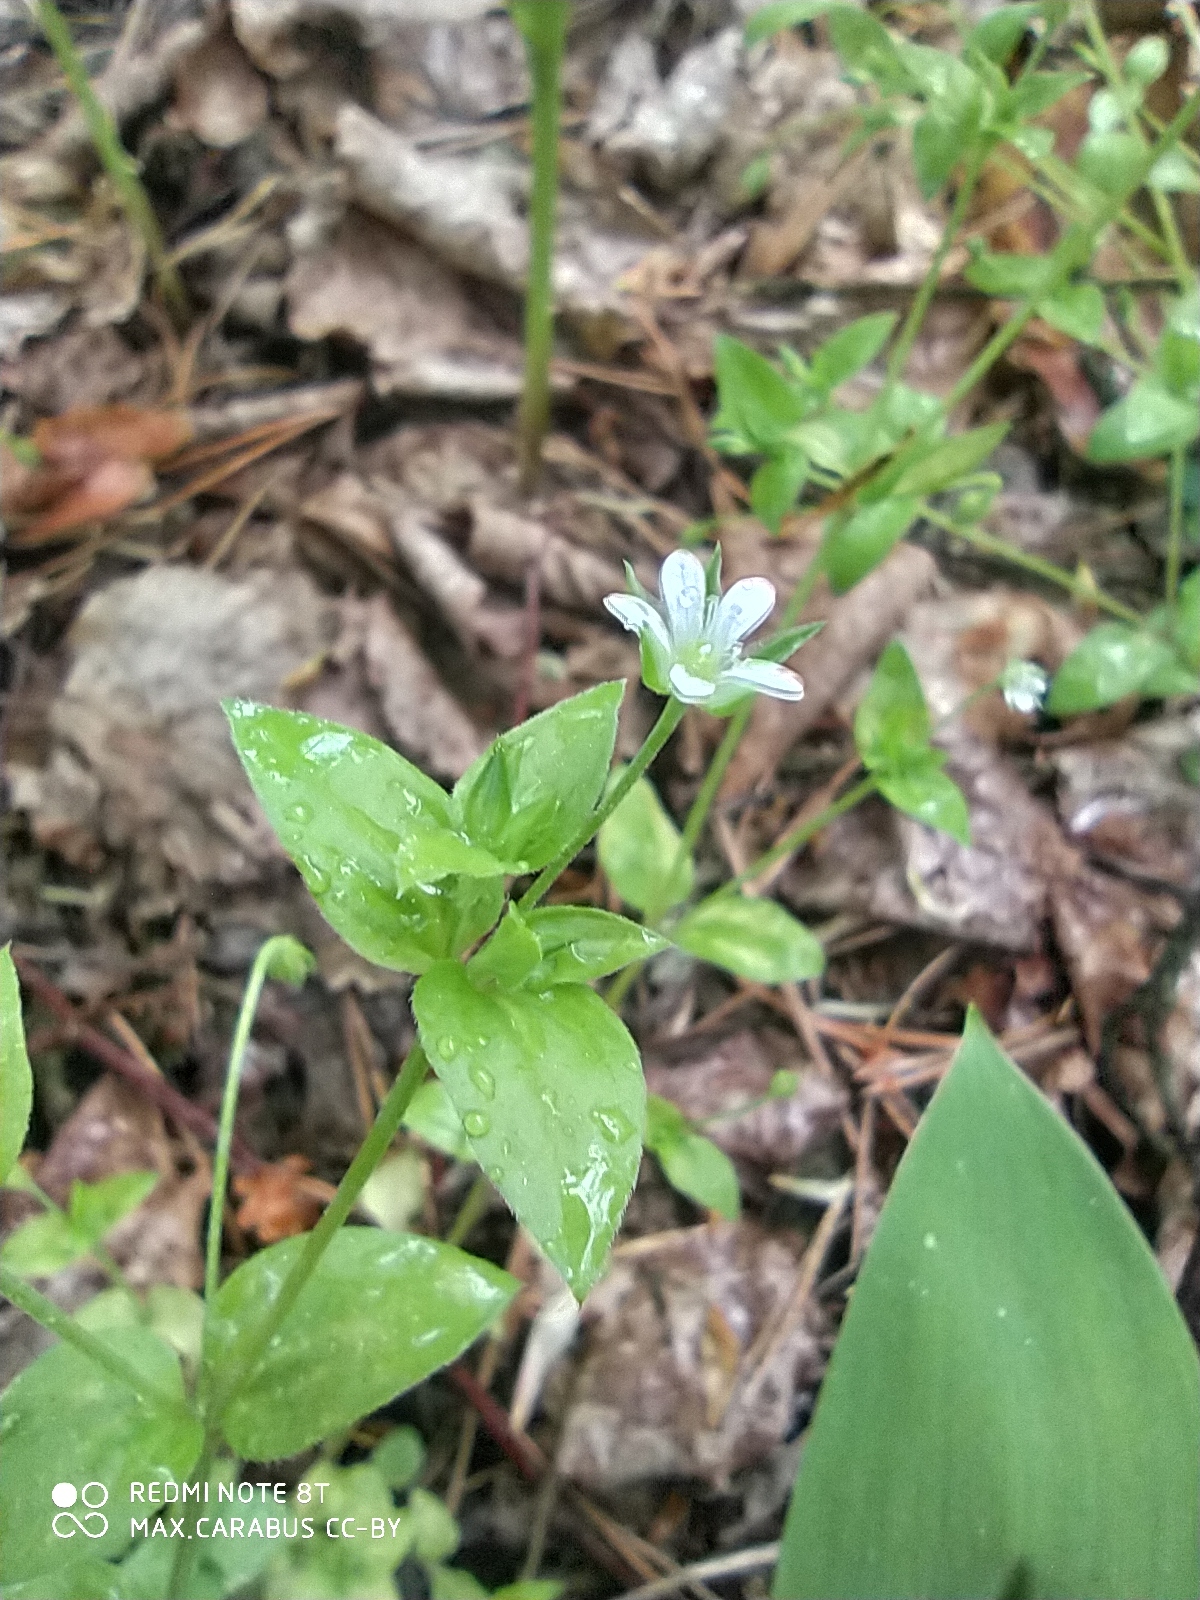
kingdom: Plantae
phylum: Tracheophyta
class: Magnoliopsida
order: Caryophyllales
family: Caryophyllaceae
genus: Moehringia
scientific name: Moehringia trinervia
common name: Three-nerved sandwort
